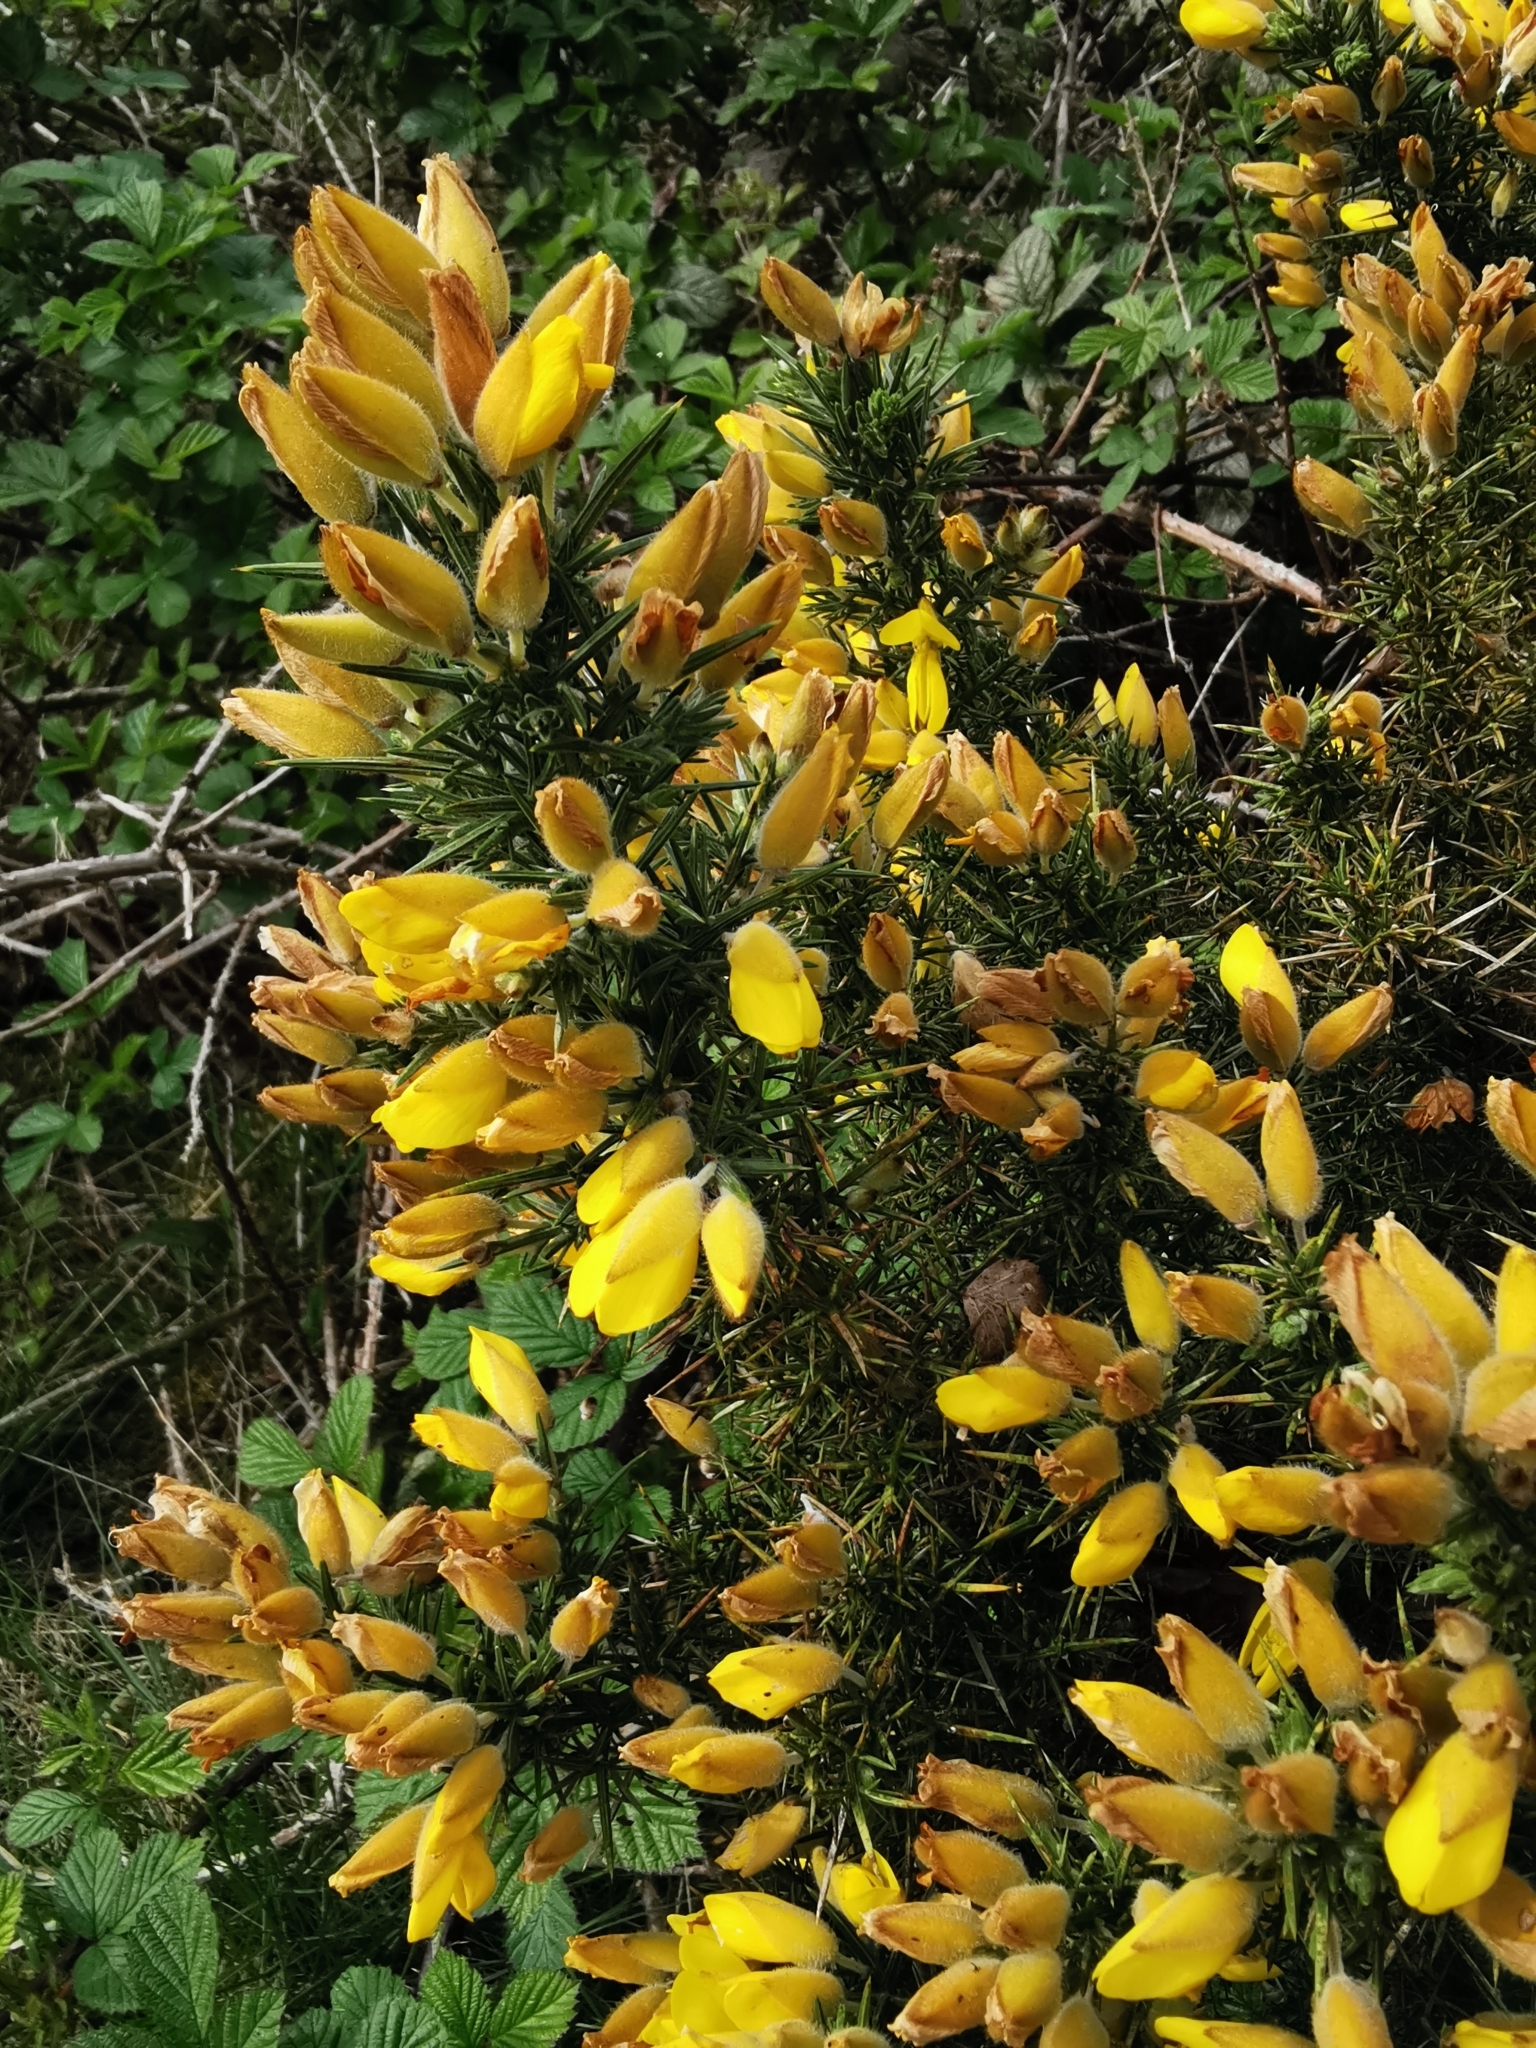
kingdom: Plantae
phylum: Tracheophyta
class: Magnoliopsida
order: Fabales
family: Fabaceae
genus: Ulex
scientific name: Ulex europaeus
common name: Common gorse
